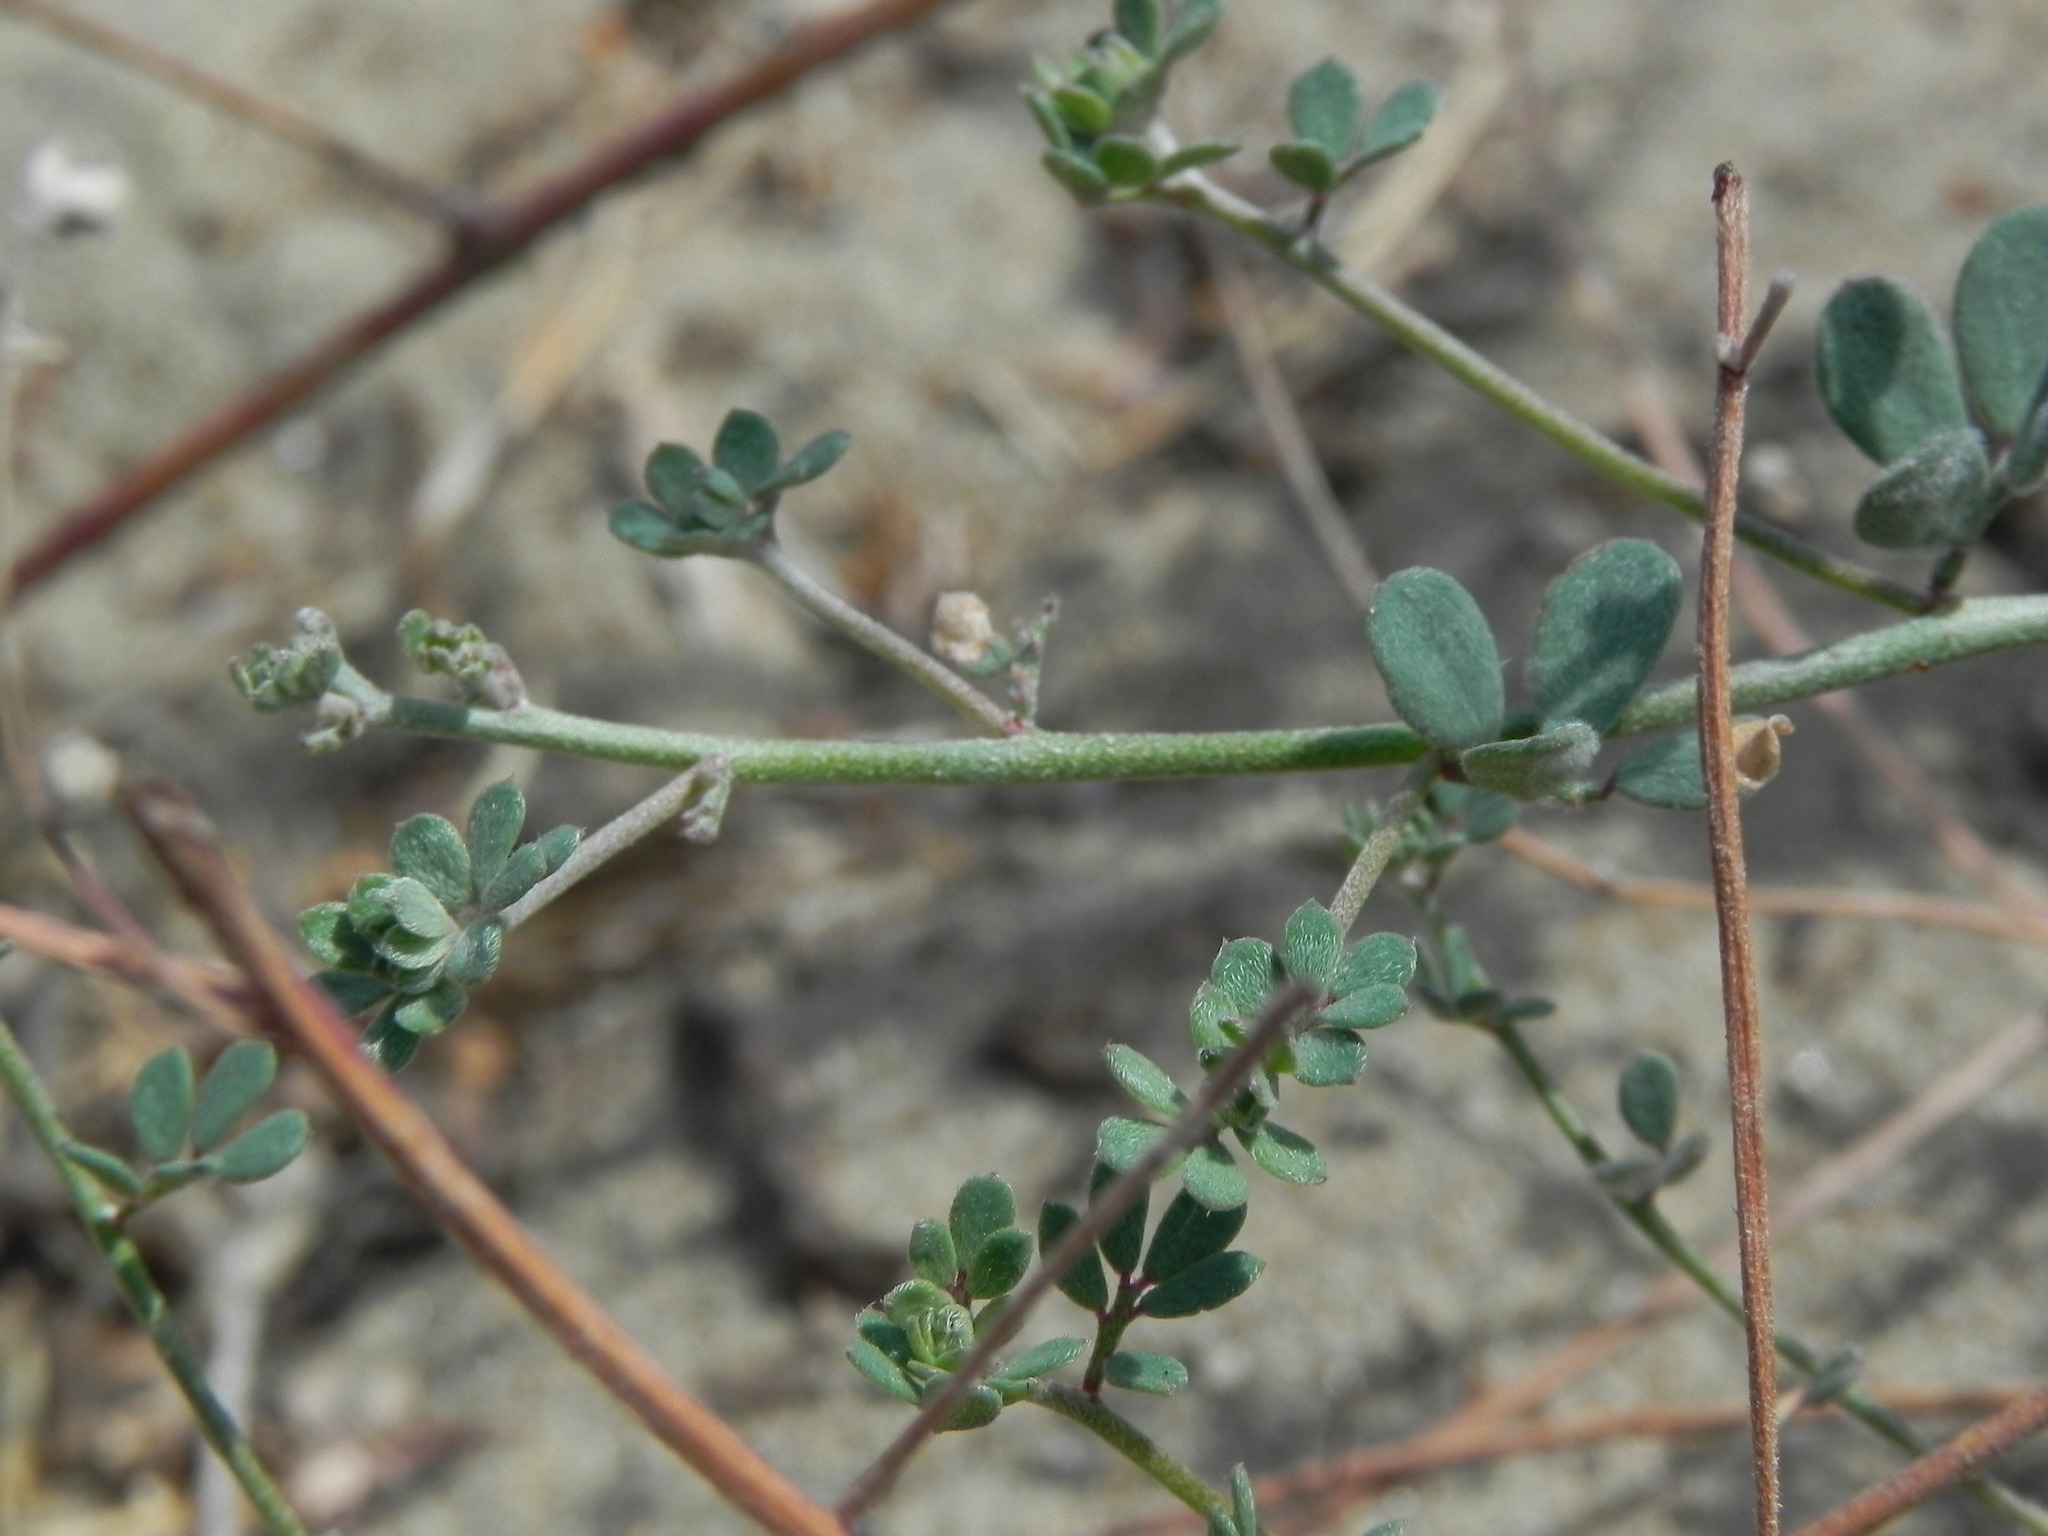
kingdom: Plantae
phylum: Tracheophyta
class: Magnoliopsida
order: Fabales
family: Fabaceae
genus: Acmispon
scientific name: Acmispon prostratus
